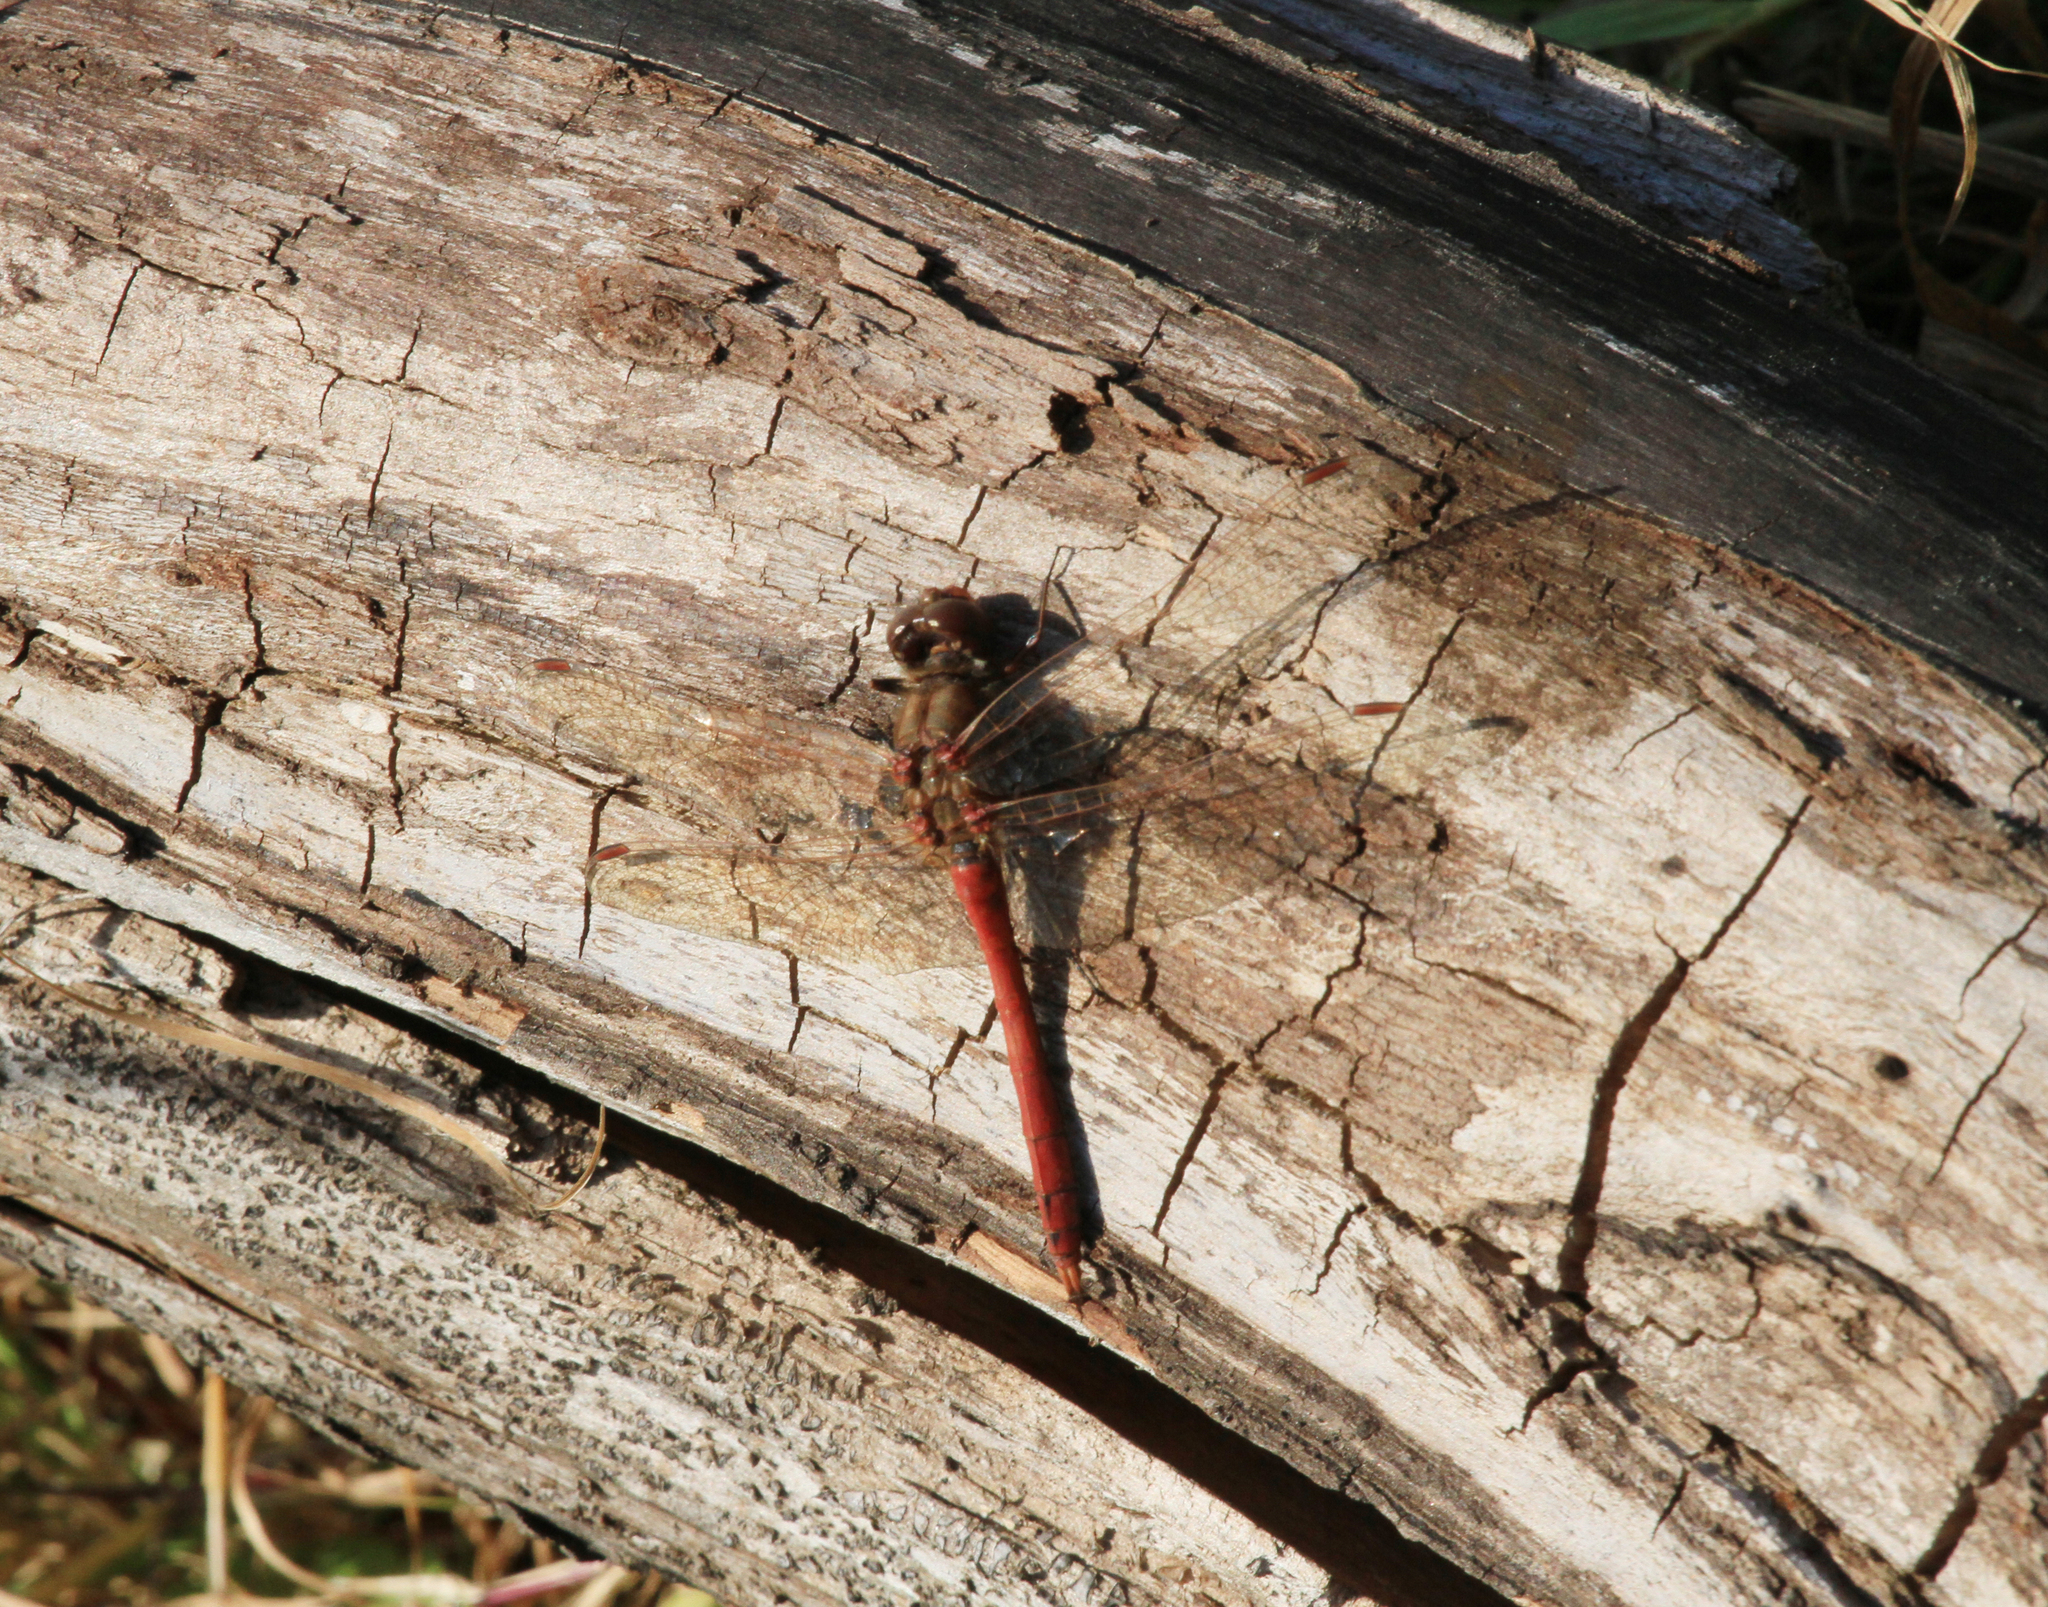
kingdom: Animalia
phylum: Arthropoda
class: Insecta
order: Odonata
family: Libellulidae
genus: Sympetrum
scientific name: Sympetrum vulgatum
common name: Vagrant darter
